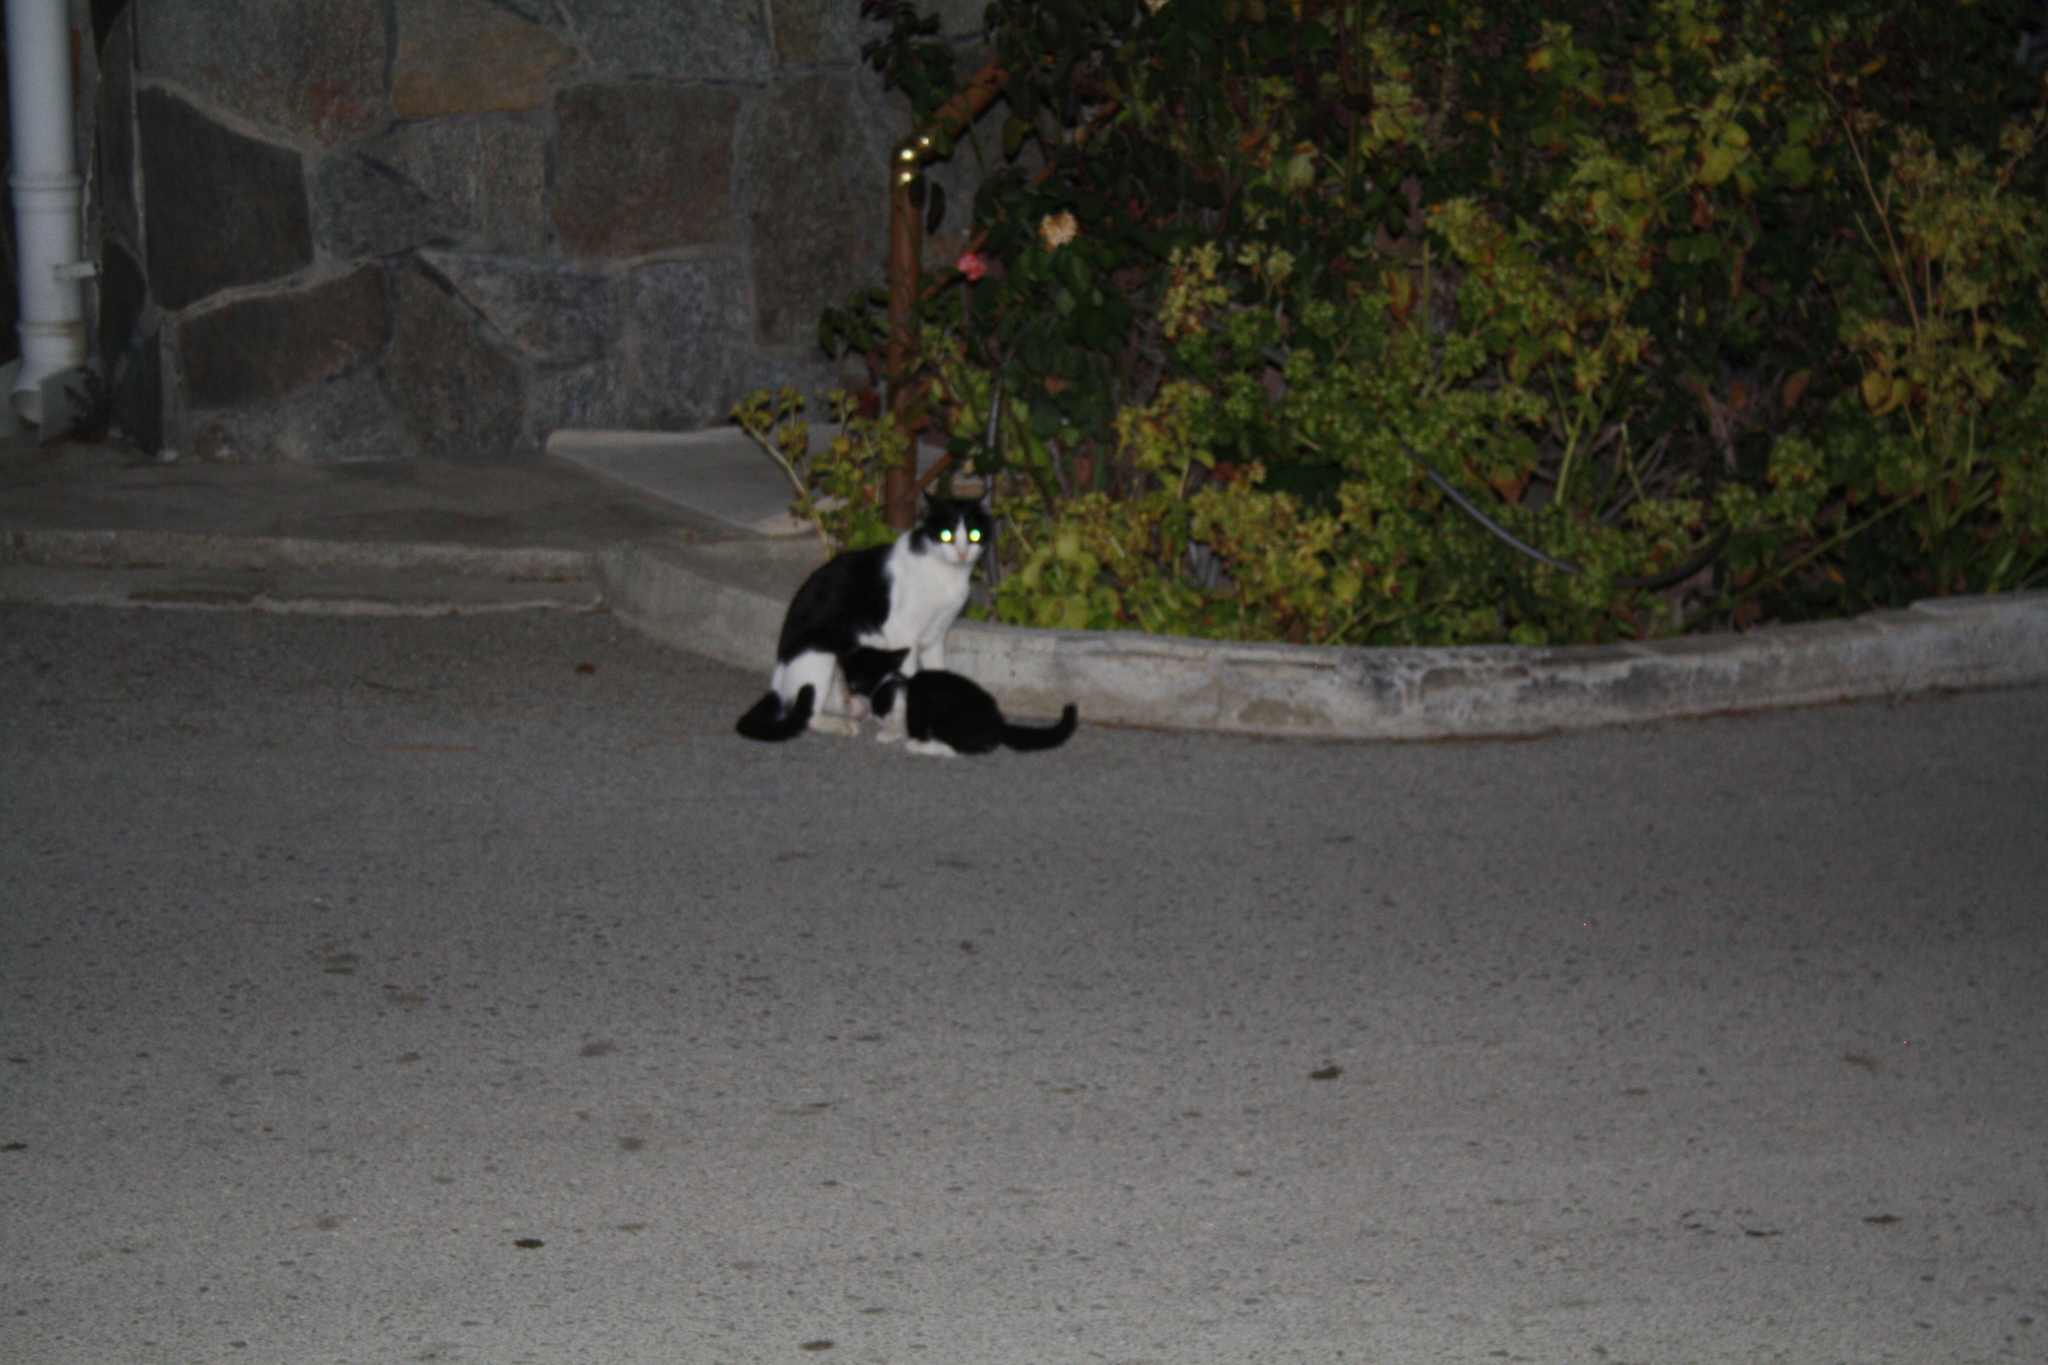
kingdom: Animalia
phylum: Chordata
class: Mammalia
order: Carnivora
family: Felidae
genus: Felis
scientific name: Felis catus
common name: Domestic cat
